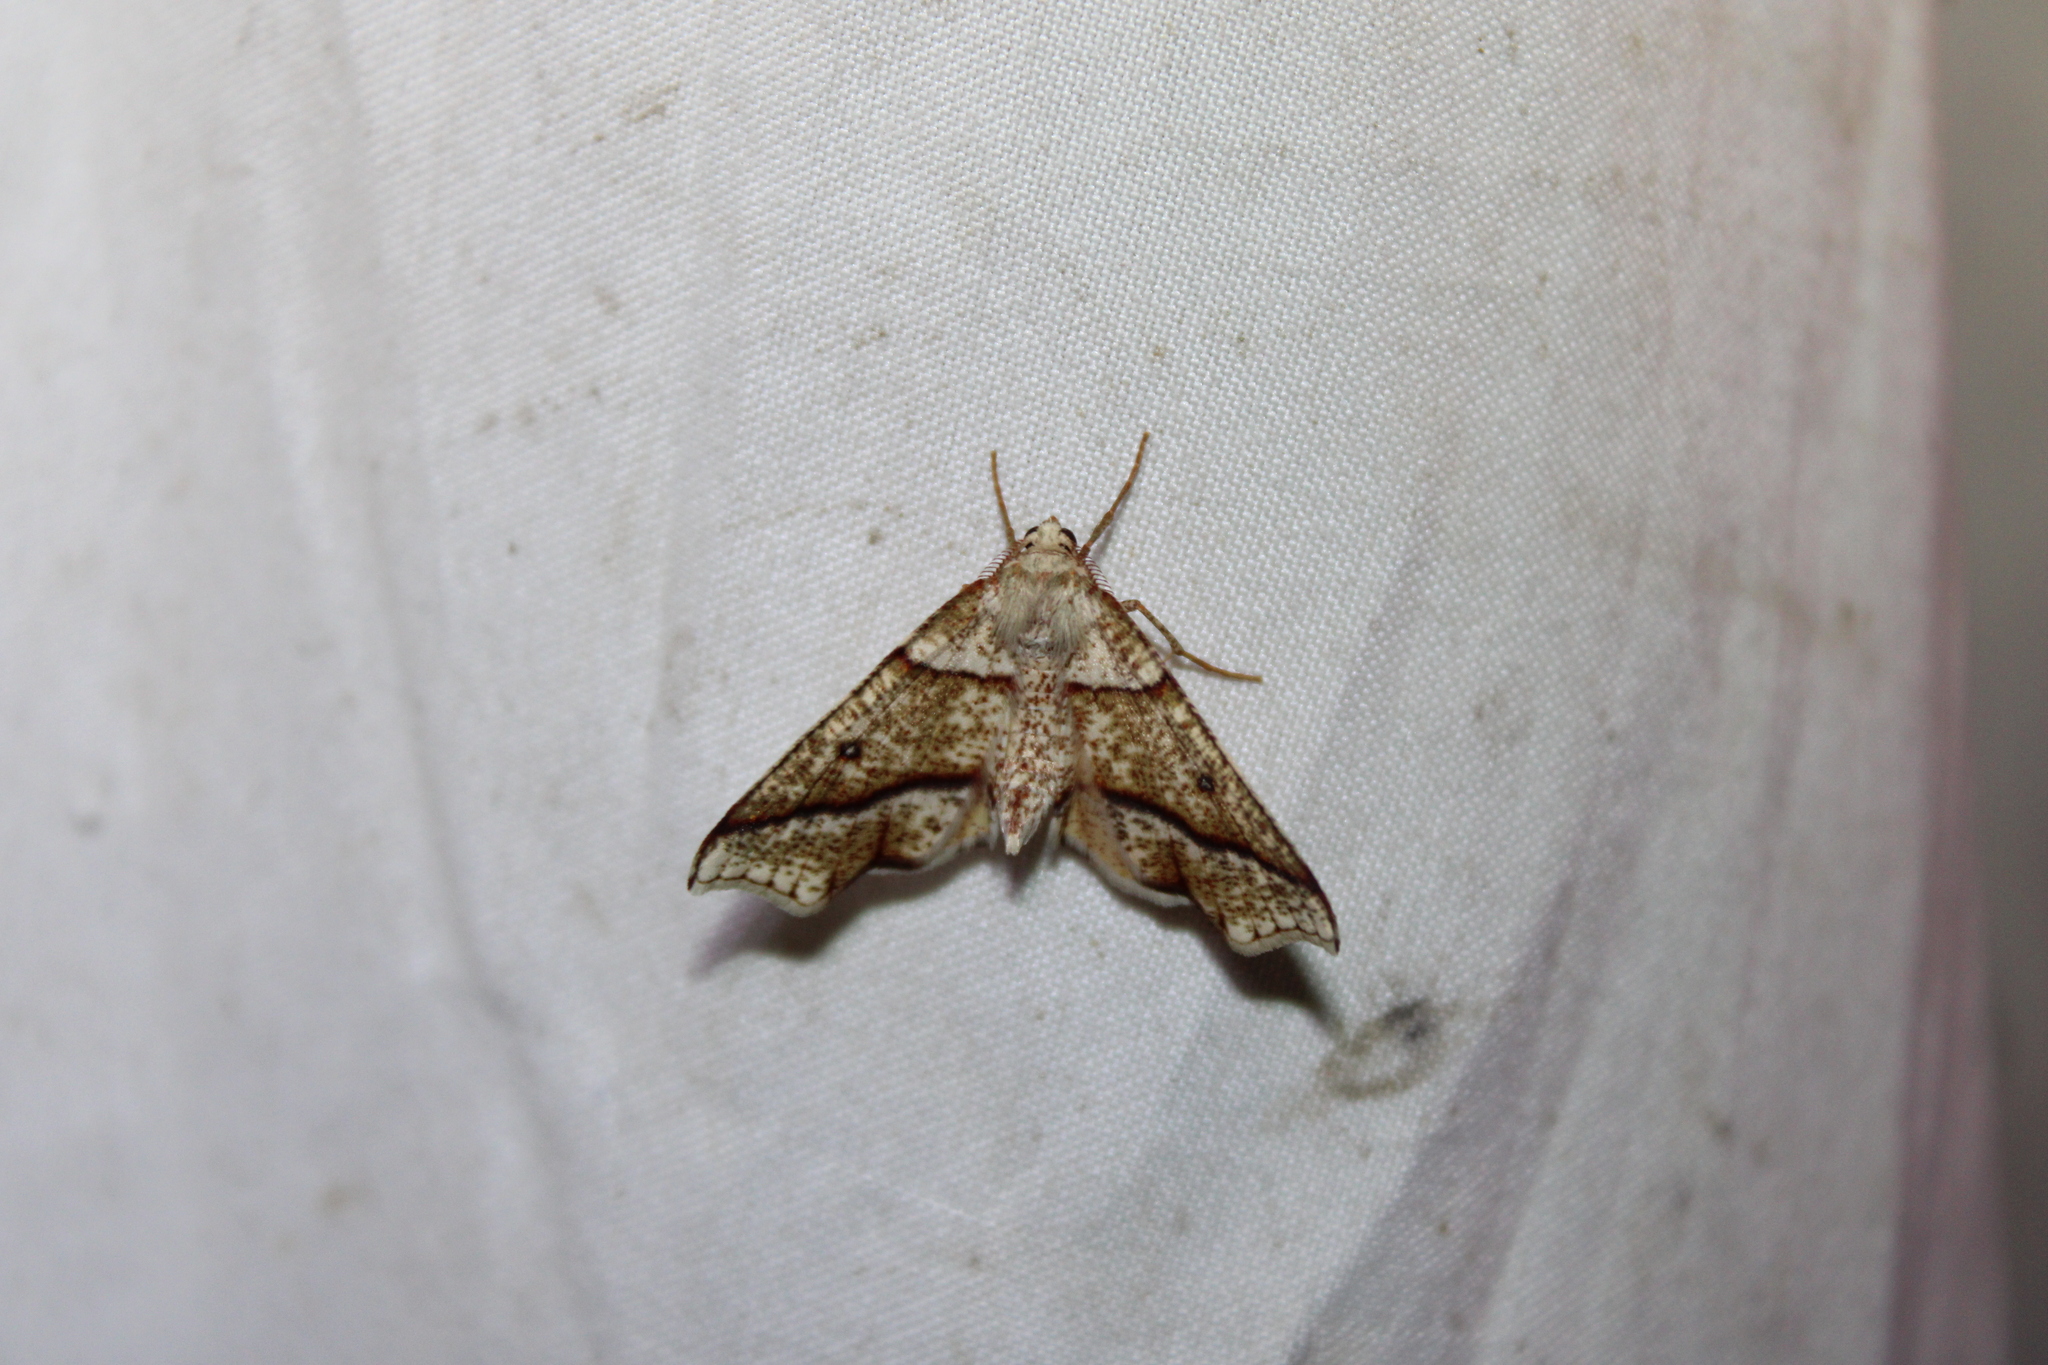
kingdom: Animalia
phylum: Arthropoda
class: Insecta
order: Lepidoptera
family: Geometridae
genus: Plagodis
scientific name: Plagodis alcoolaria
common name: Hollow-spotted plagodis
